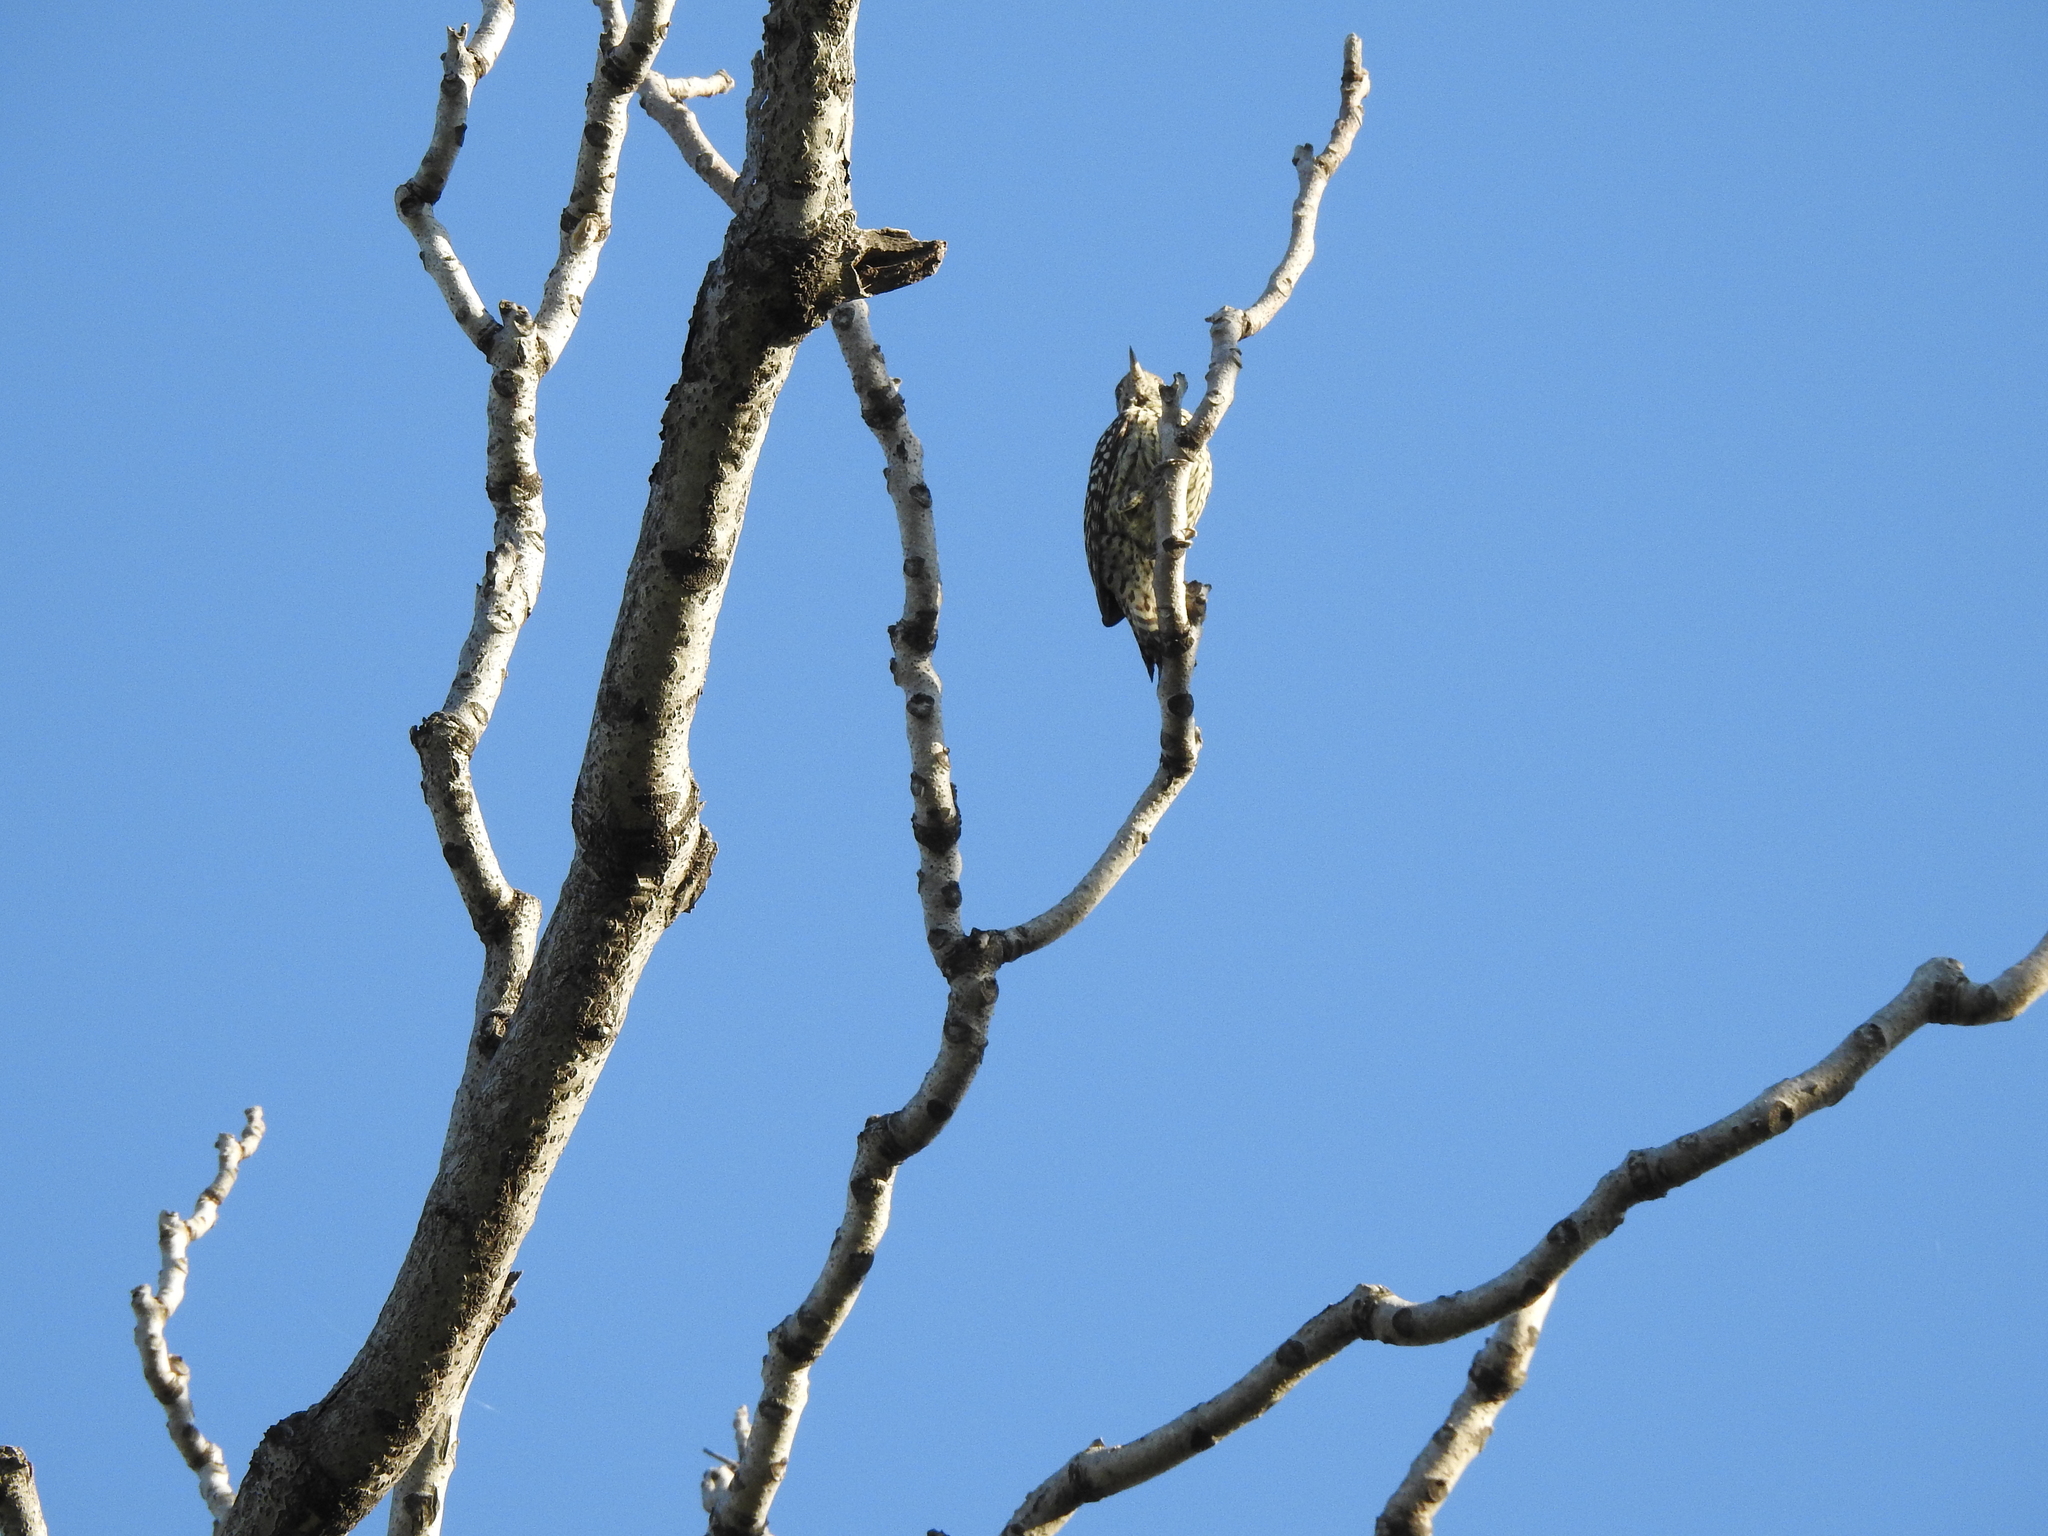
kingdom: Animalia
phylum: Chordata
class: Aves
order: Piciformes
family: Picidae
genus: Veniliornis
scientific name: Veniliornis mixtus
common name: Checkered woodpecker
